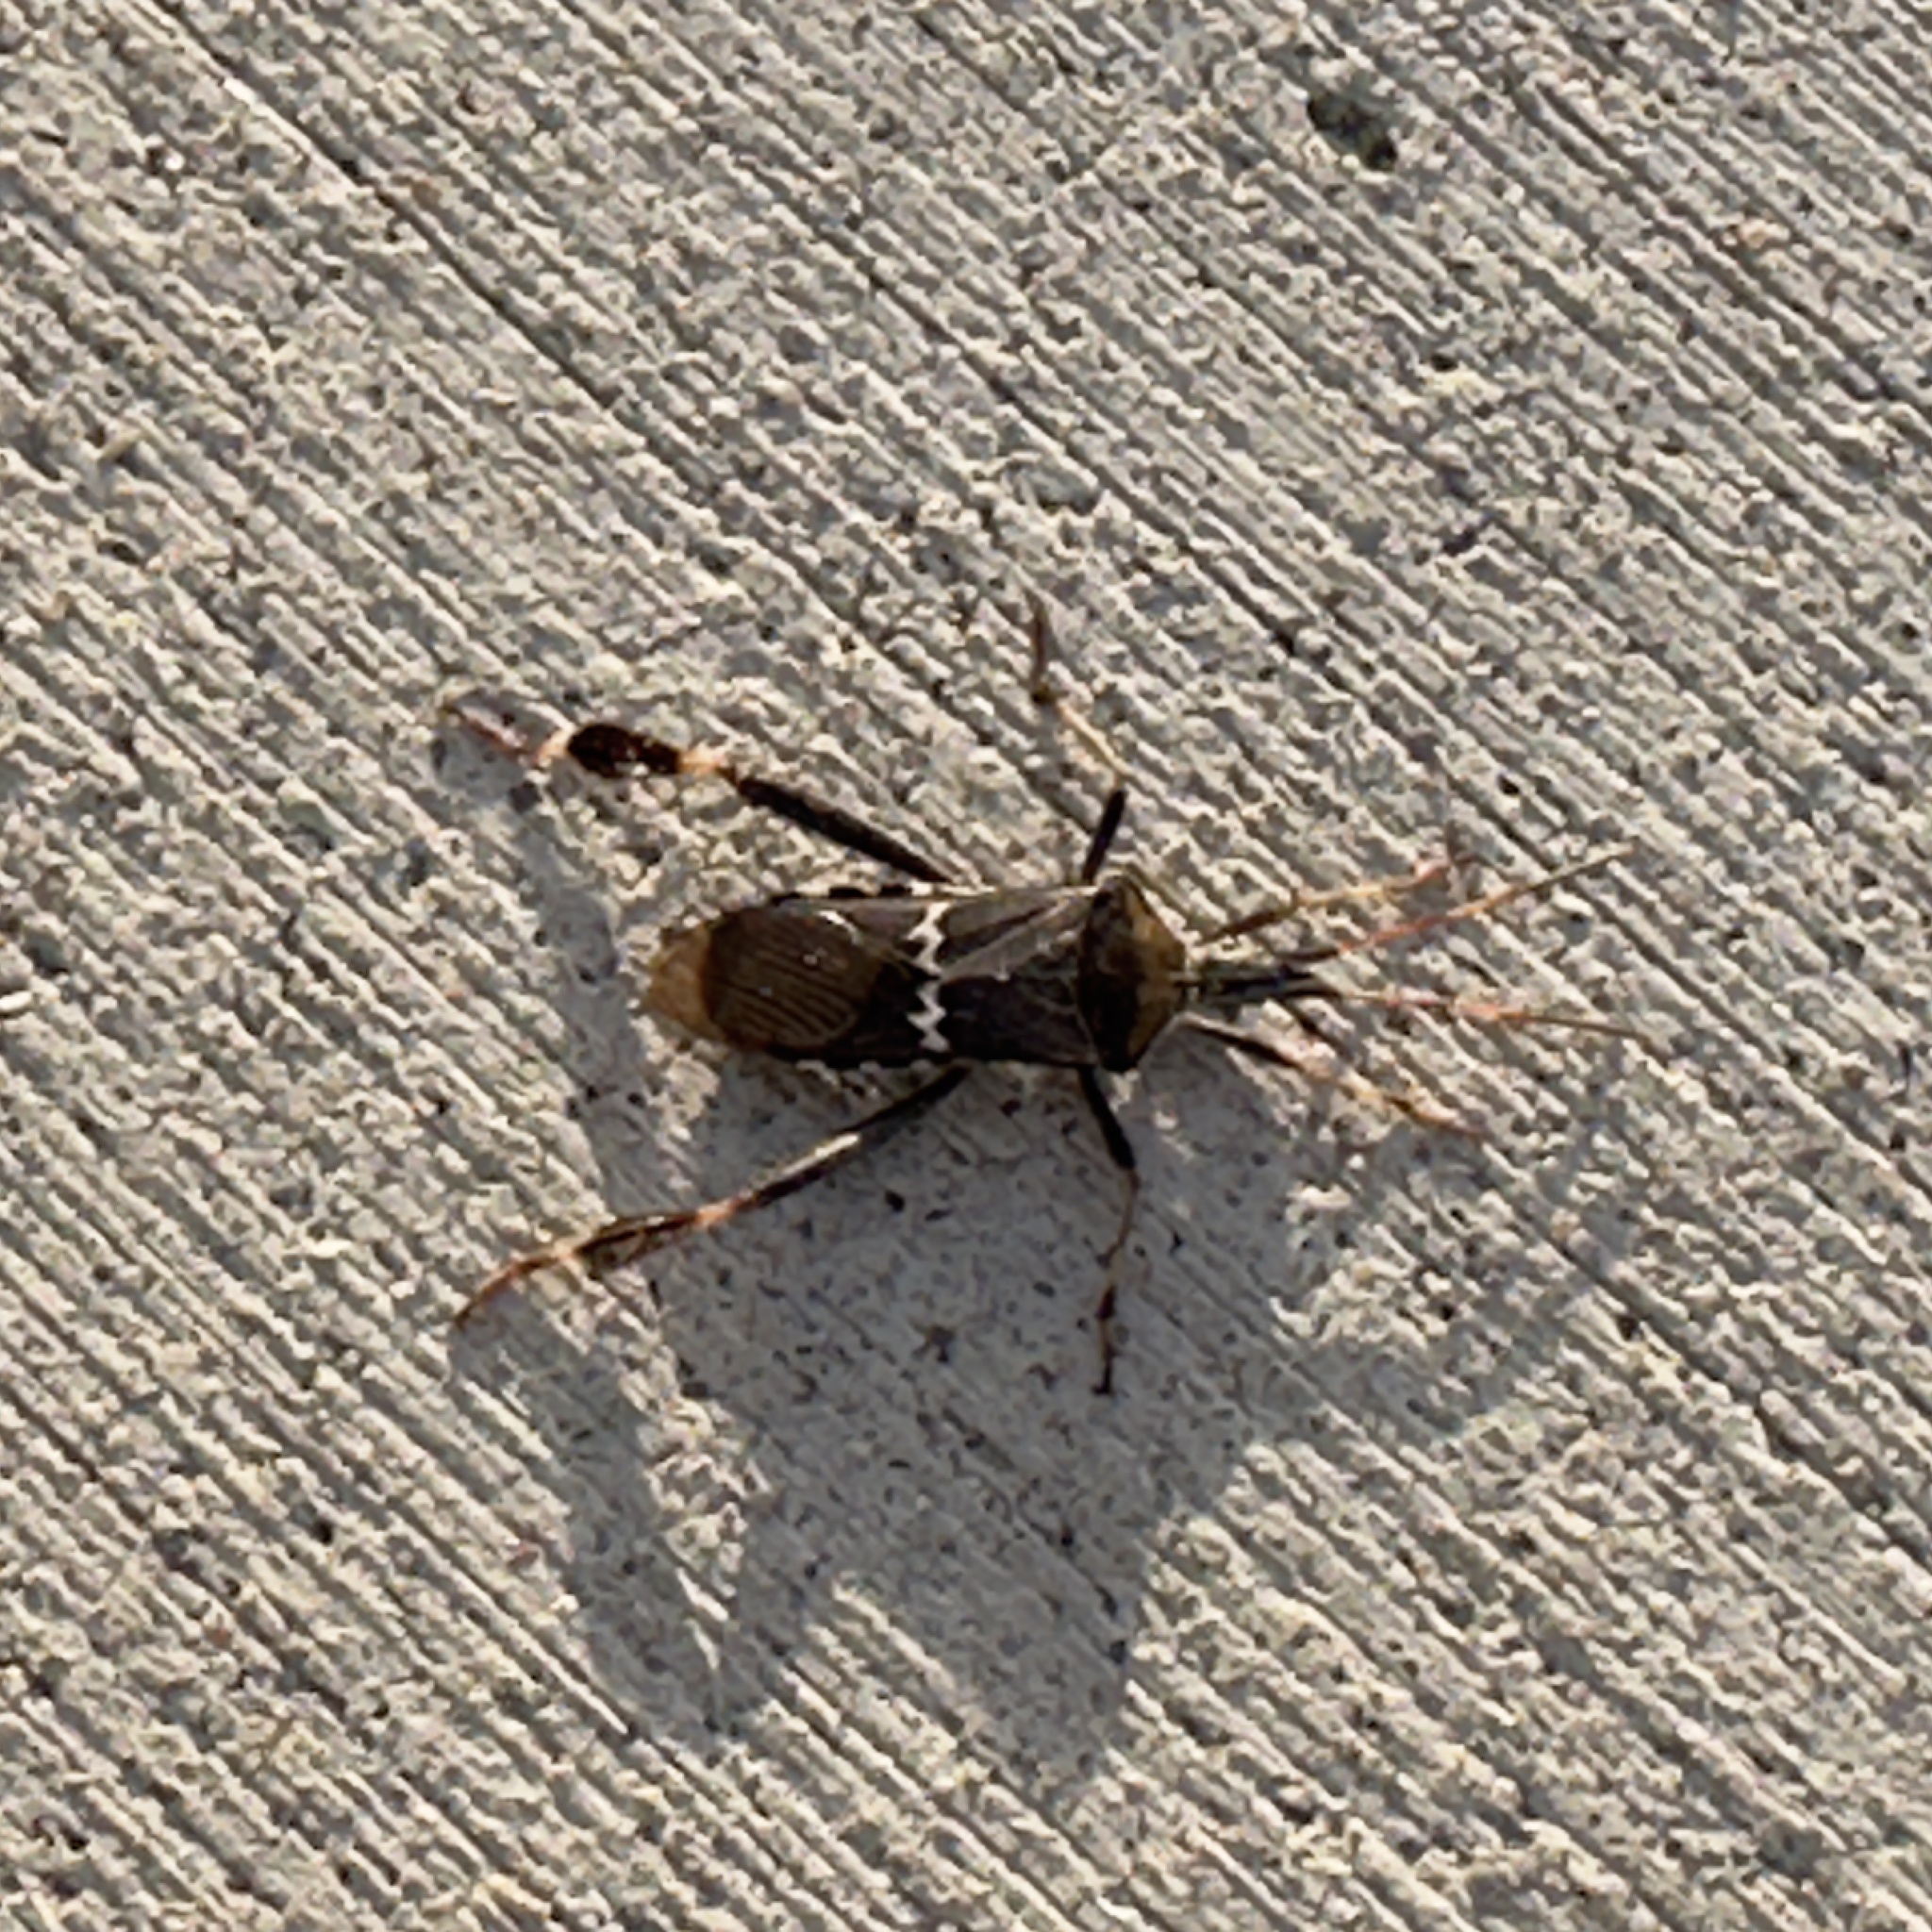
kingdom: Animalia
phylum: Arthropoda
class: Insecta
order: Hemiptera
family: Coreidae
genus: Leptoglossus
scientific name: Leptoglossus clypealis
